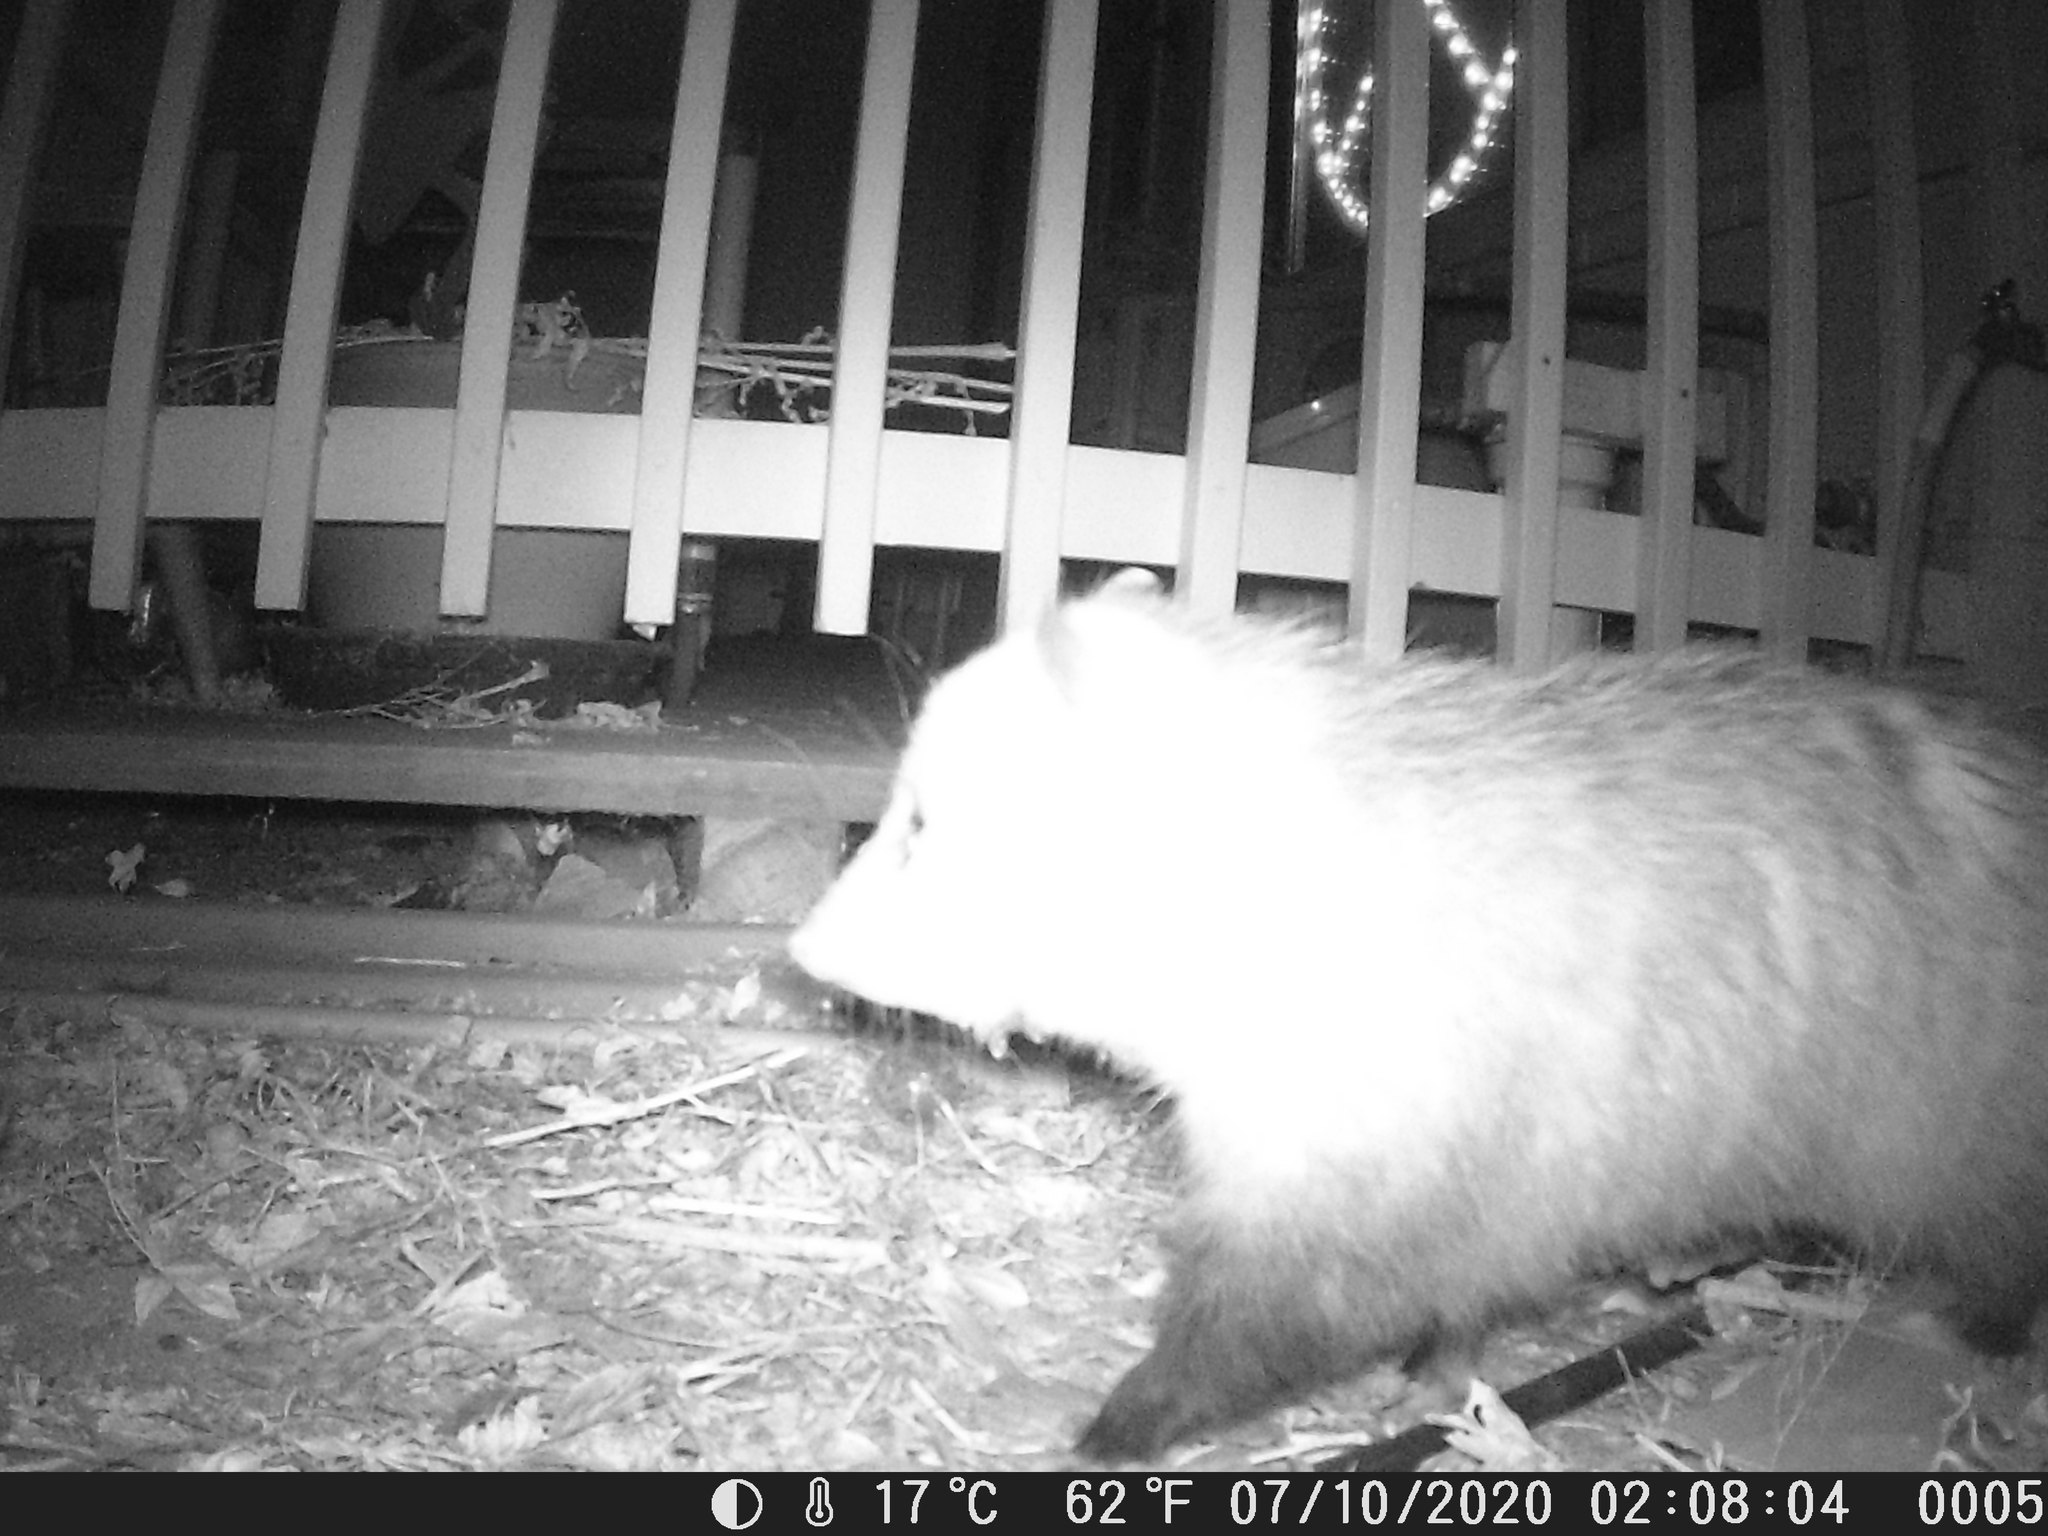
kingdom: Animalia
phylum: Chordata
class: Mammalia
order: Didelphimorphia
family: Didelphidae
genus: Didelphis
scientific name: Didelphis virginiana
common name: Virginia opossum
